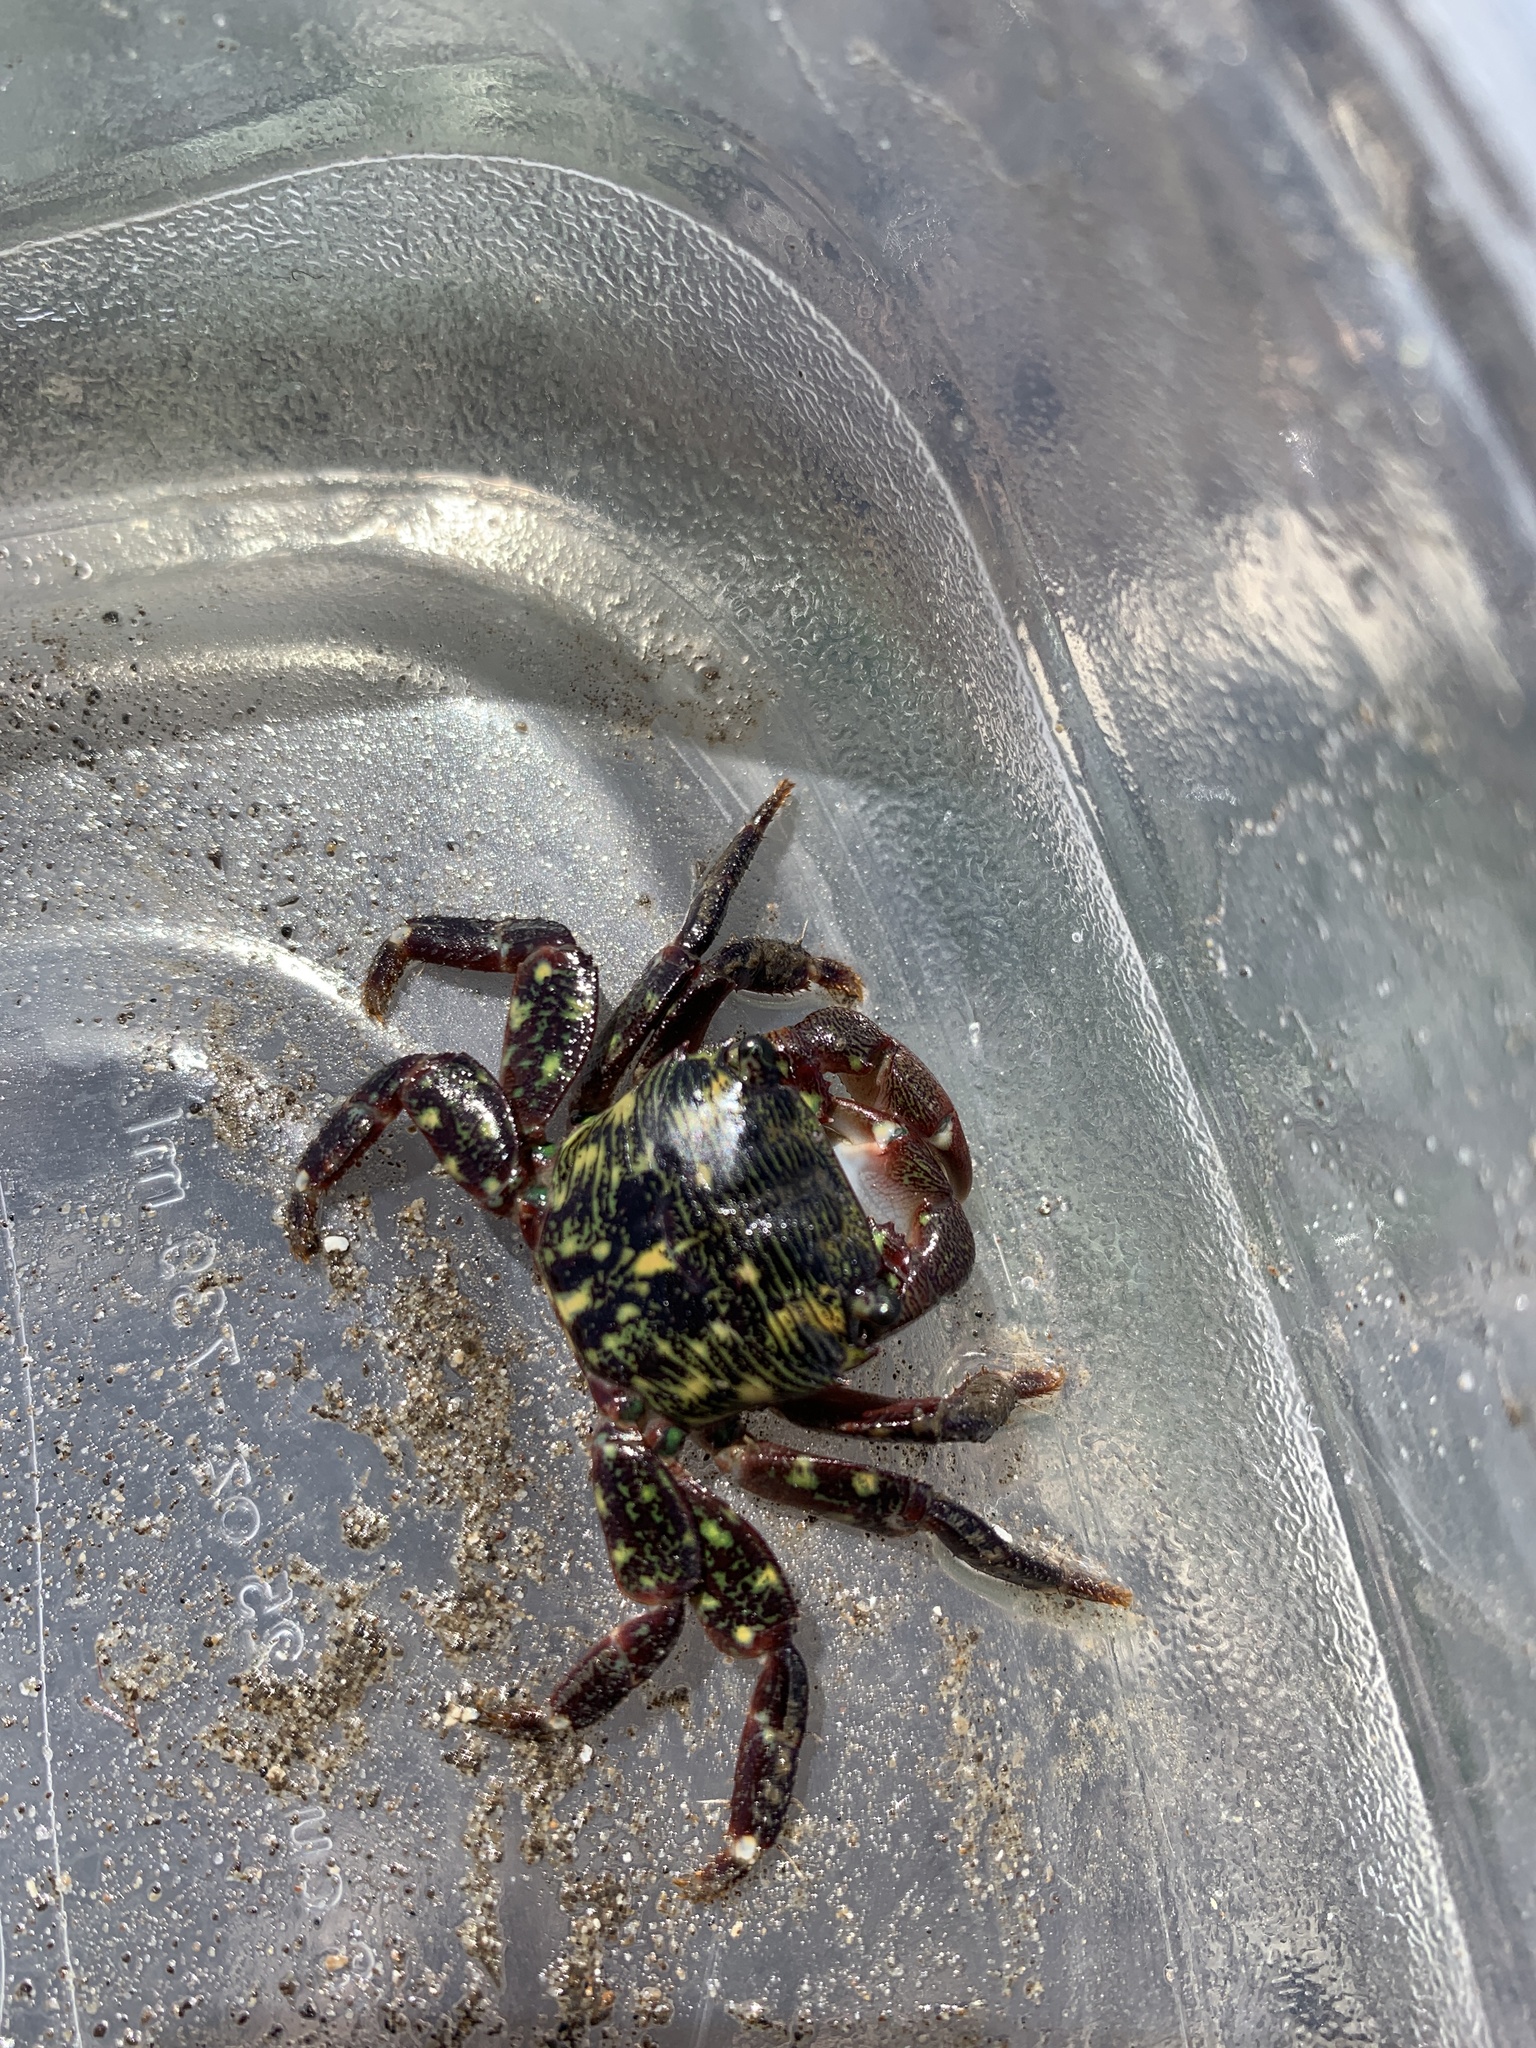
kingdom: Animalia
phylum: Arthropoda
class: Malacostraca
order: Decapoda
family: Grapsidae
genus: Pachygrapsus
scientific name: Pachygrapsus crassipes
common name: Striped shore crab
